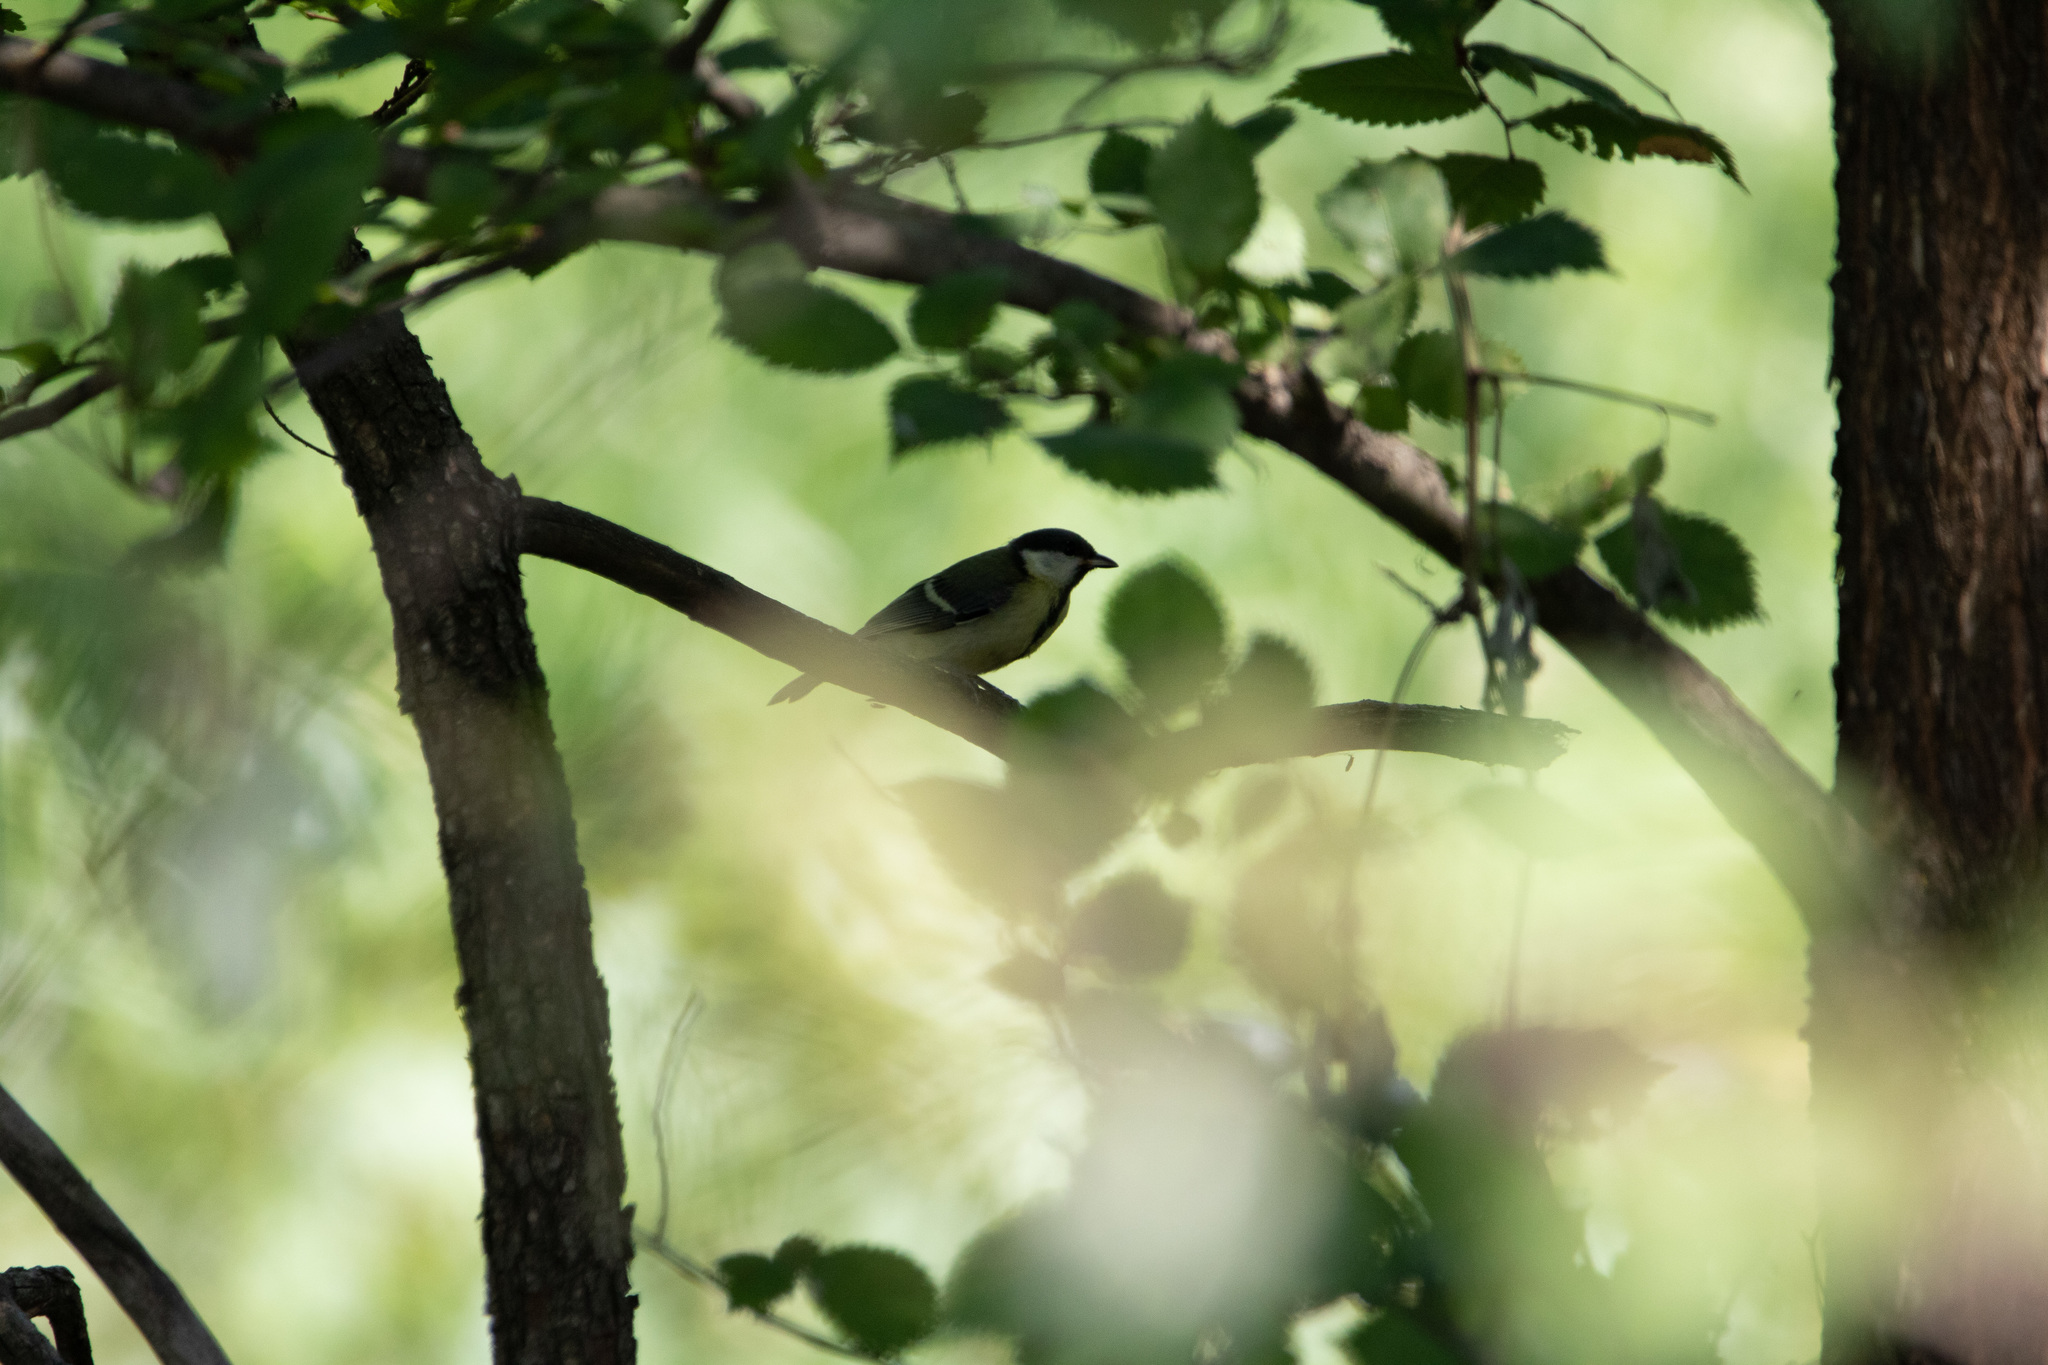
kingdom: Animalia
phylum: Chordata
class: Aves
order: Passeriformes
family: Paridae
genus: Parus
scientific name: Parus major
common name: Great tit
